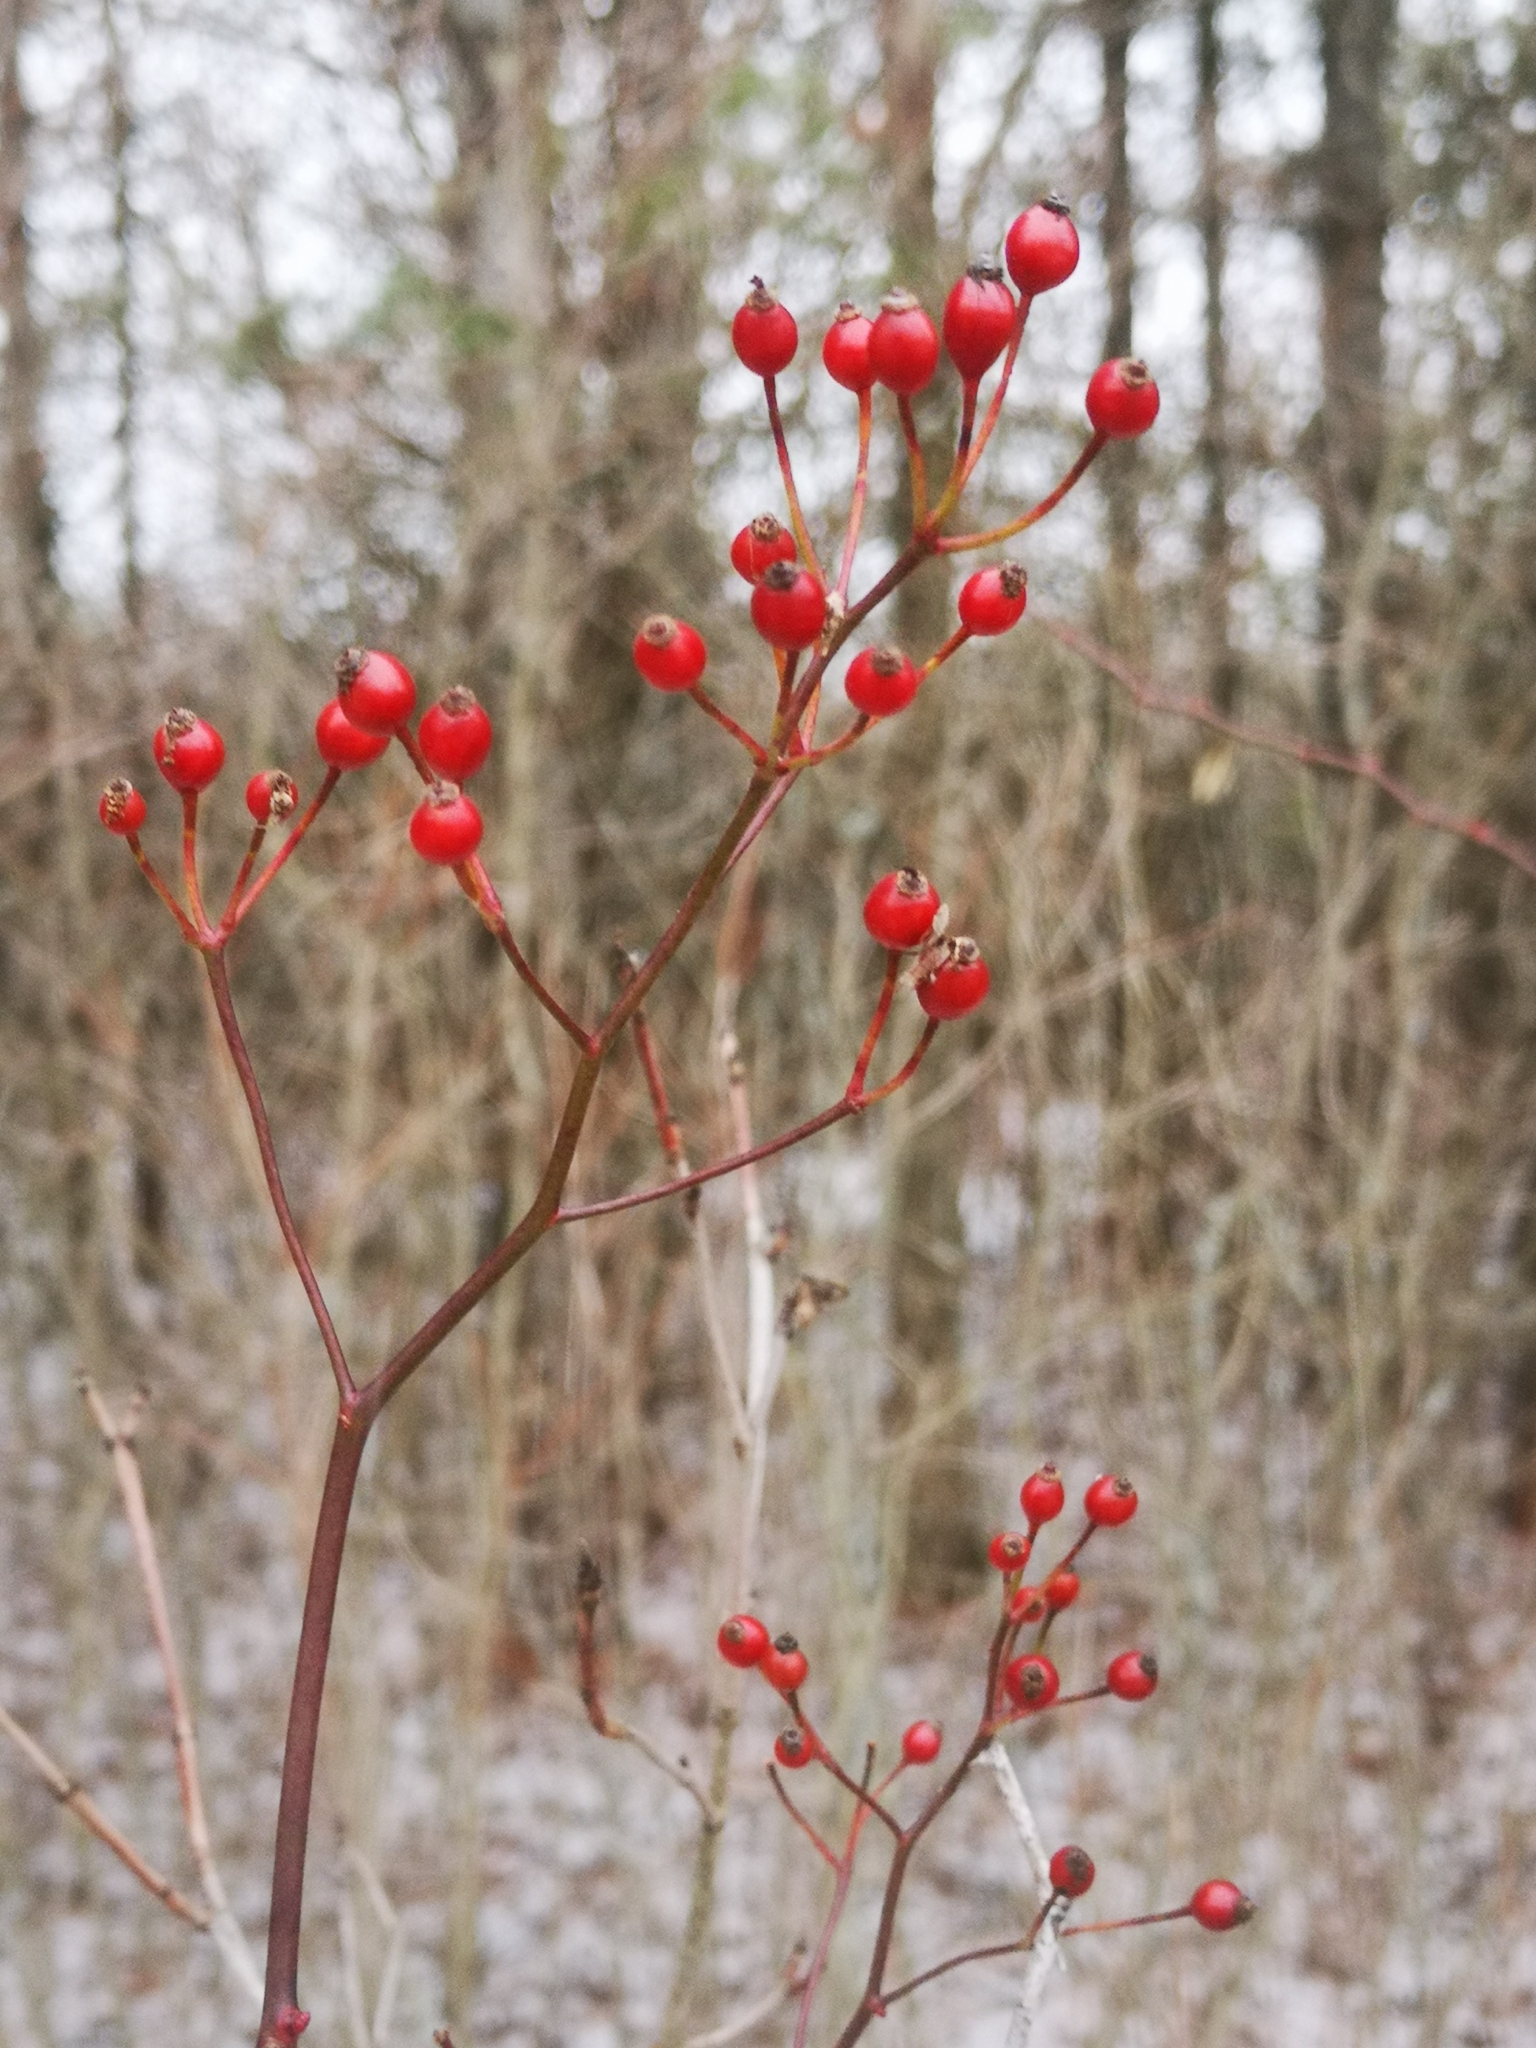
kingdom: Plantae
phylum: Tracheophyta
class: Magnoliopsida
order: Rosales
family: Rosaceae
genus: Rosa
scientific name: Rosa multiflora
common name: Multiflora rose
